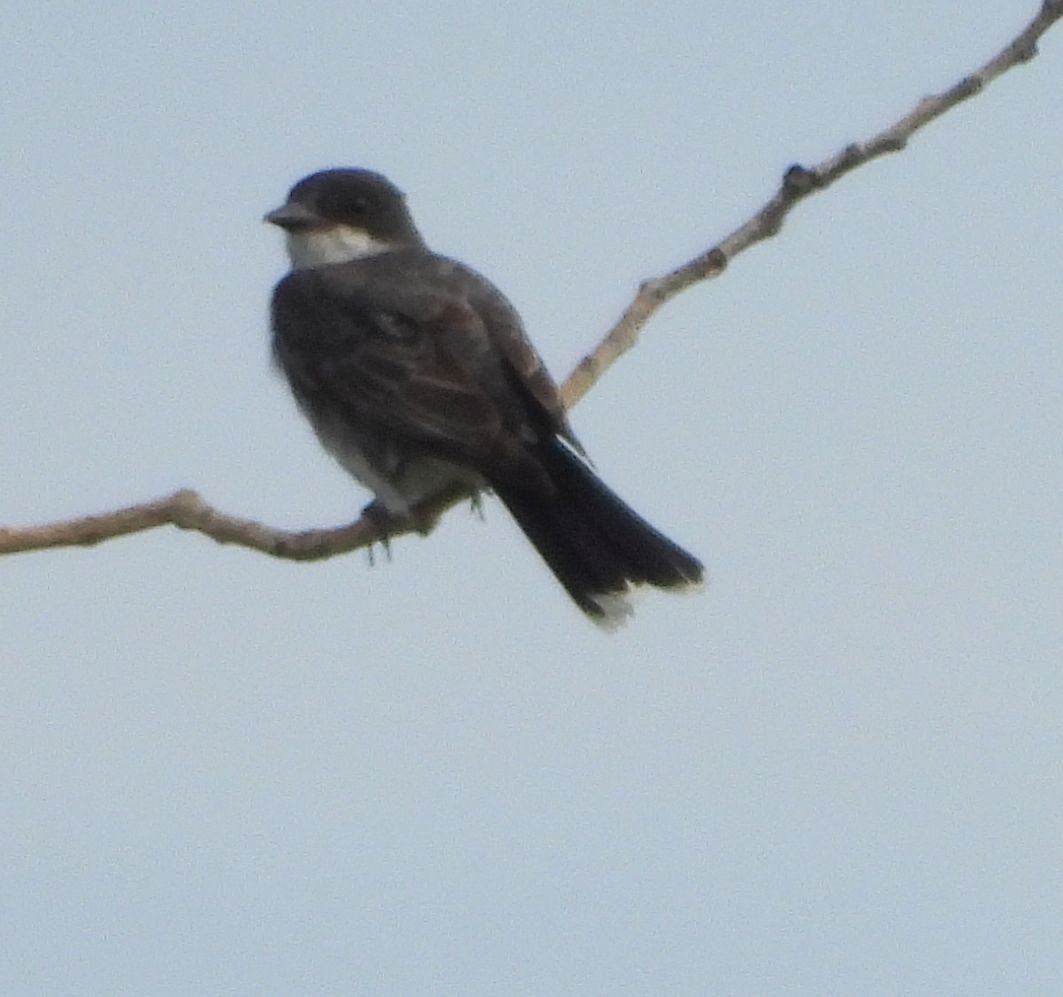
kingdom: Animalia
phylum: Chordata
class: Aves
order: Passeriformes
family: Tyrannidae
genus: Tyrannus
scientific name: Tyrannus tyrannus
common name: Eastern kingbird
